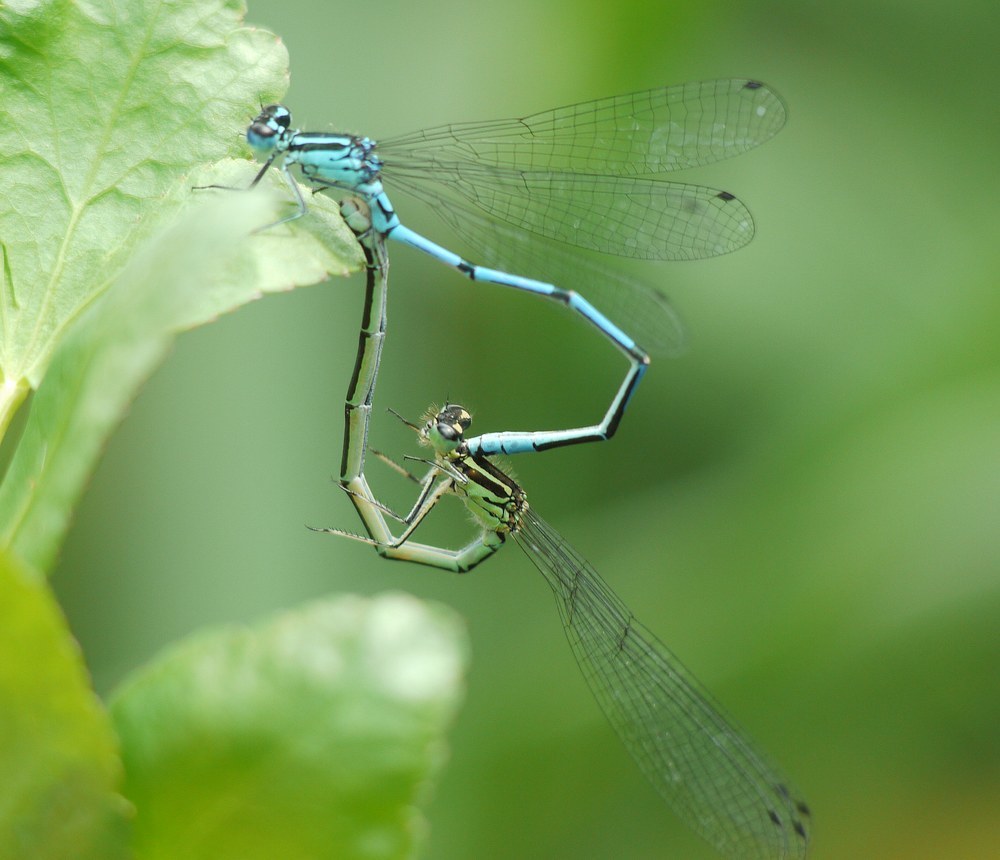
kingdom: Animalia
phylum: Arthropoda
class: Insecta
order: Odonata
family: Coenagrionidae
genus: Coenagrion
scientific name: Coenagrion puella
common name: Azure damselfly
